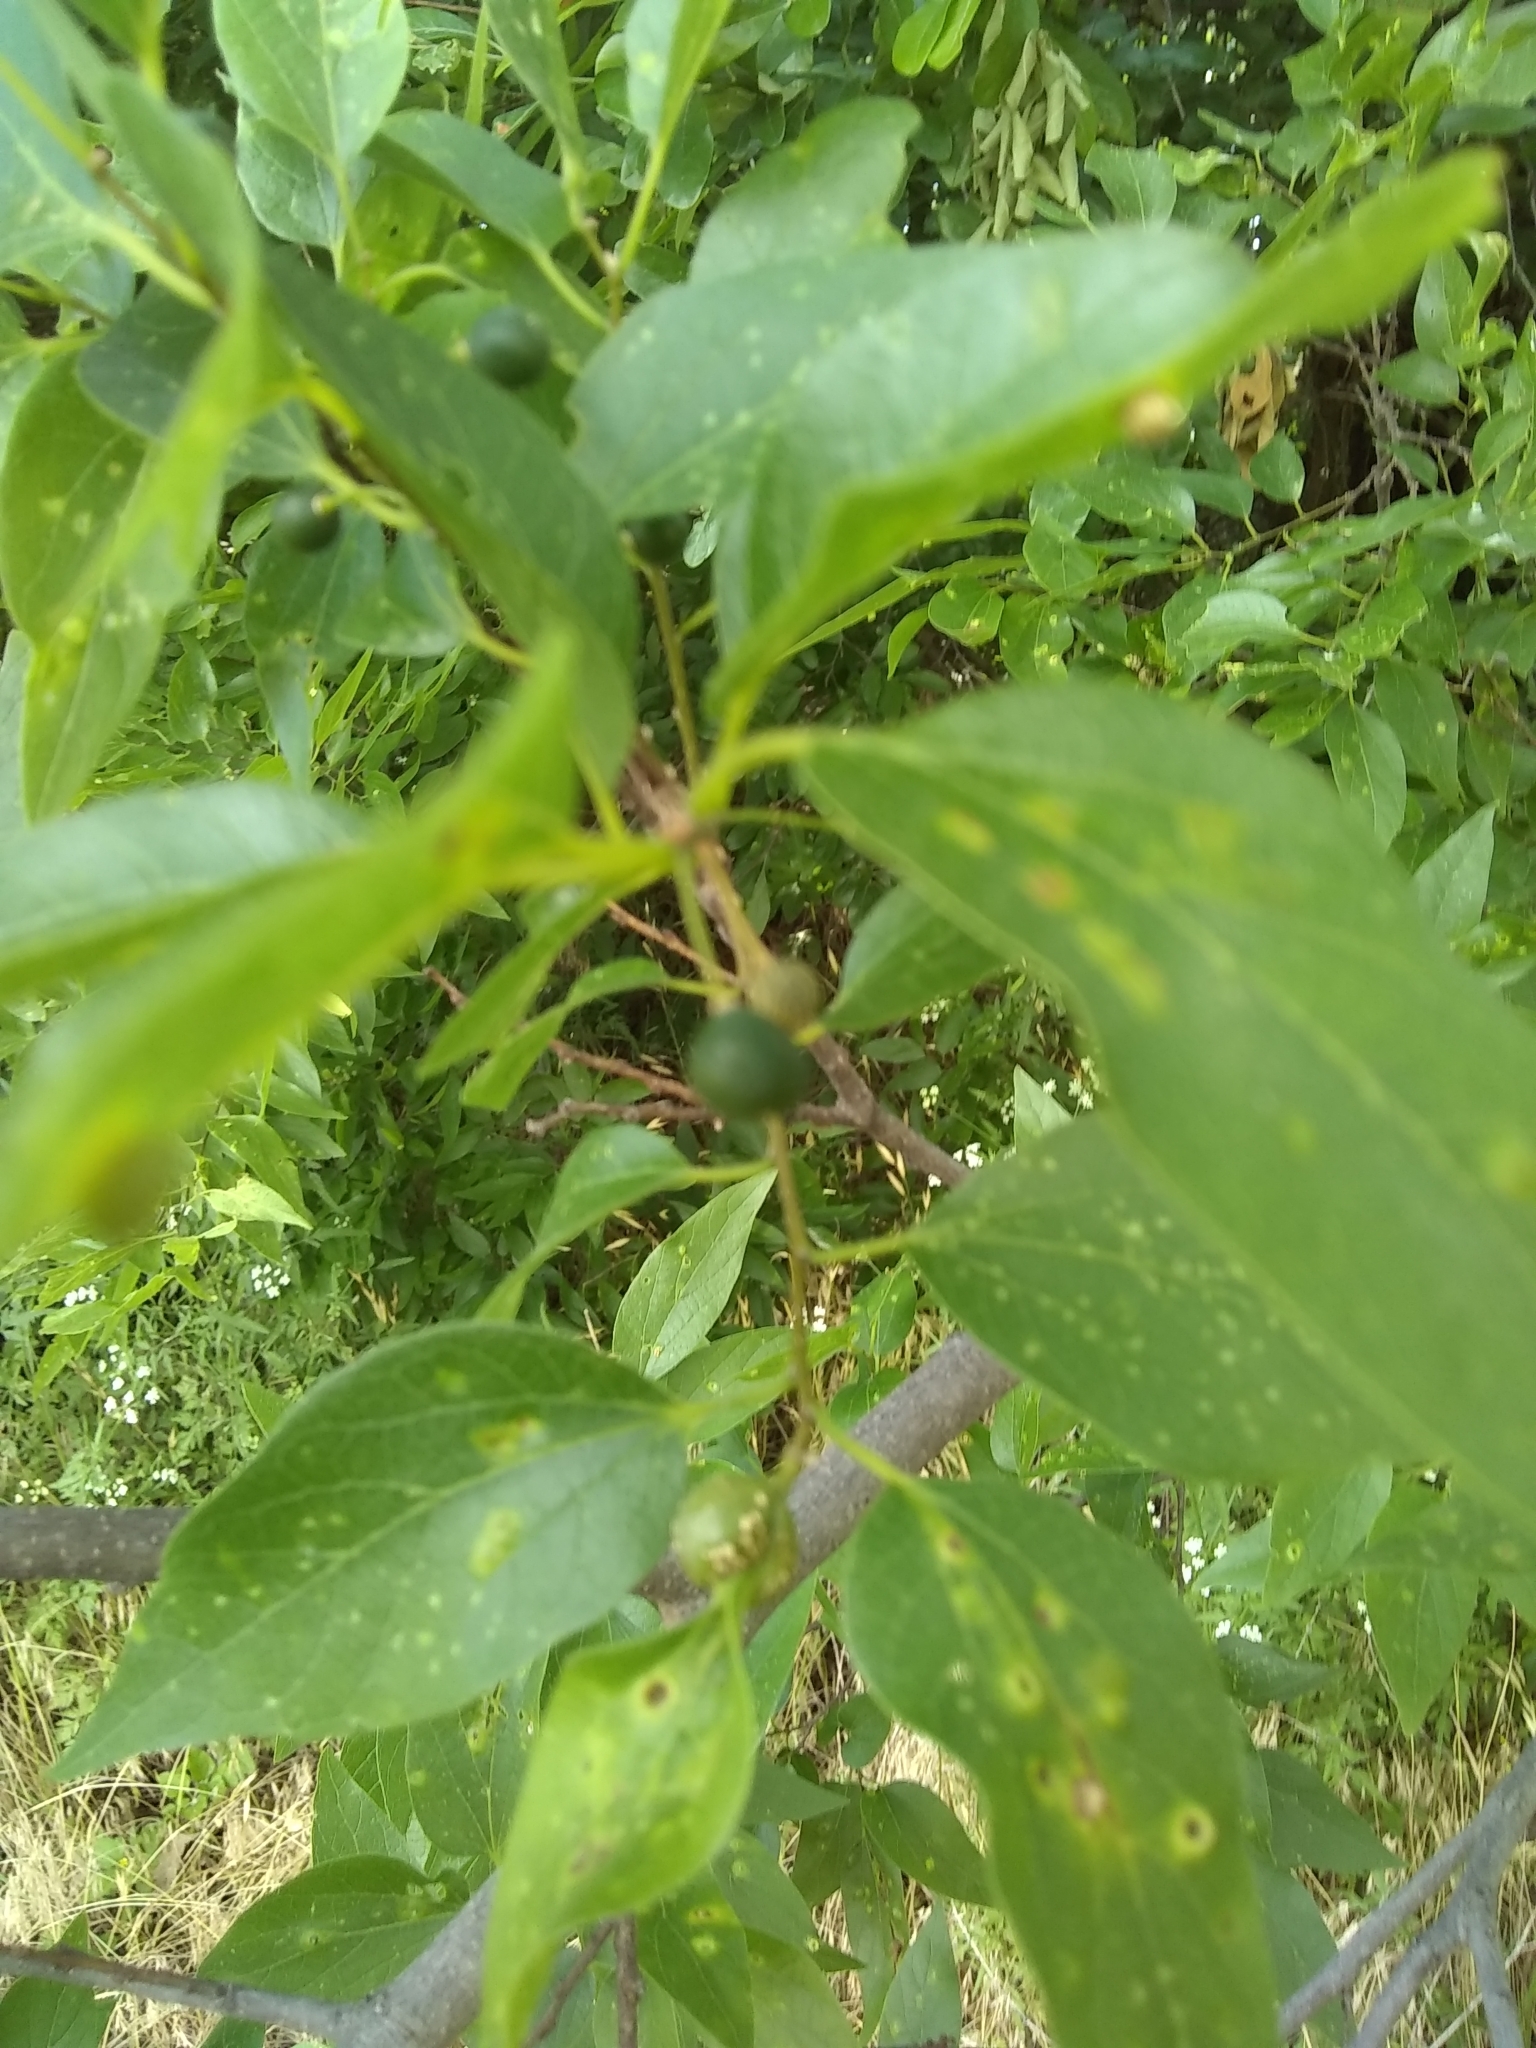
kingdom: Plantae
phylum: Tracheophyta
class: Magnoliopsida
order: Rosales
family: Cannabaceae
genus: Celtis
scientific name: Celtis laevigata
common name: Sugarberry
